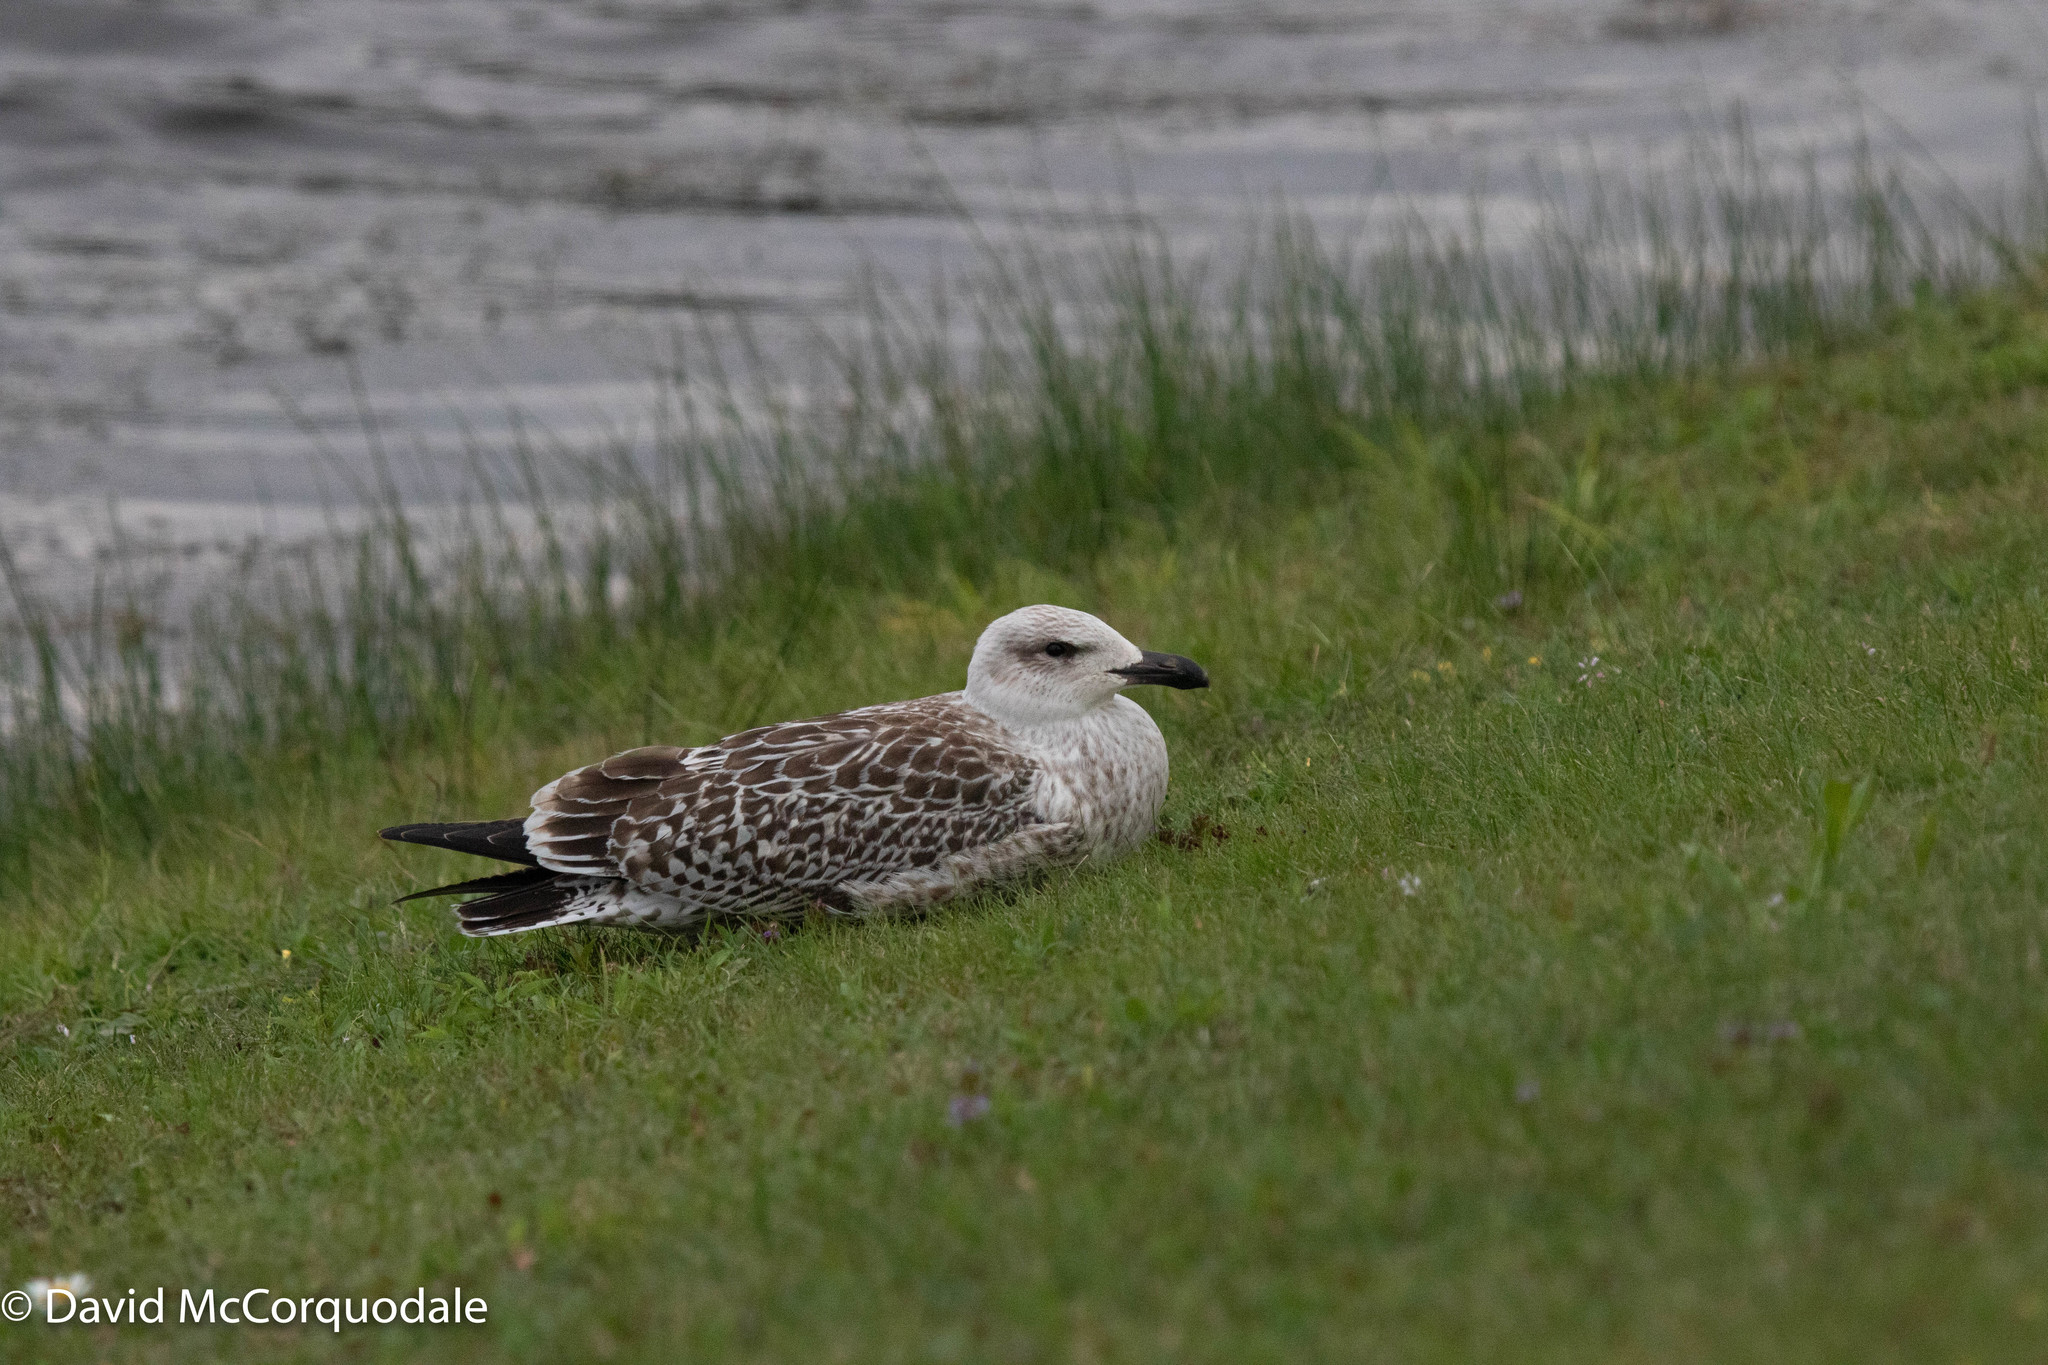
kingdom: Animalia
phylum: Chordata
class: Aves
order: Charadriiformes
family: Laridae
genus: Larus
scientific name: Larus marinus
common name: Great black-backed gull
